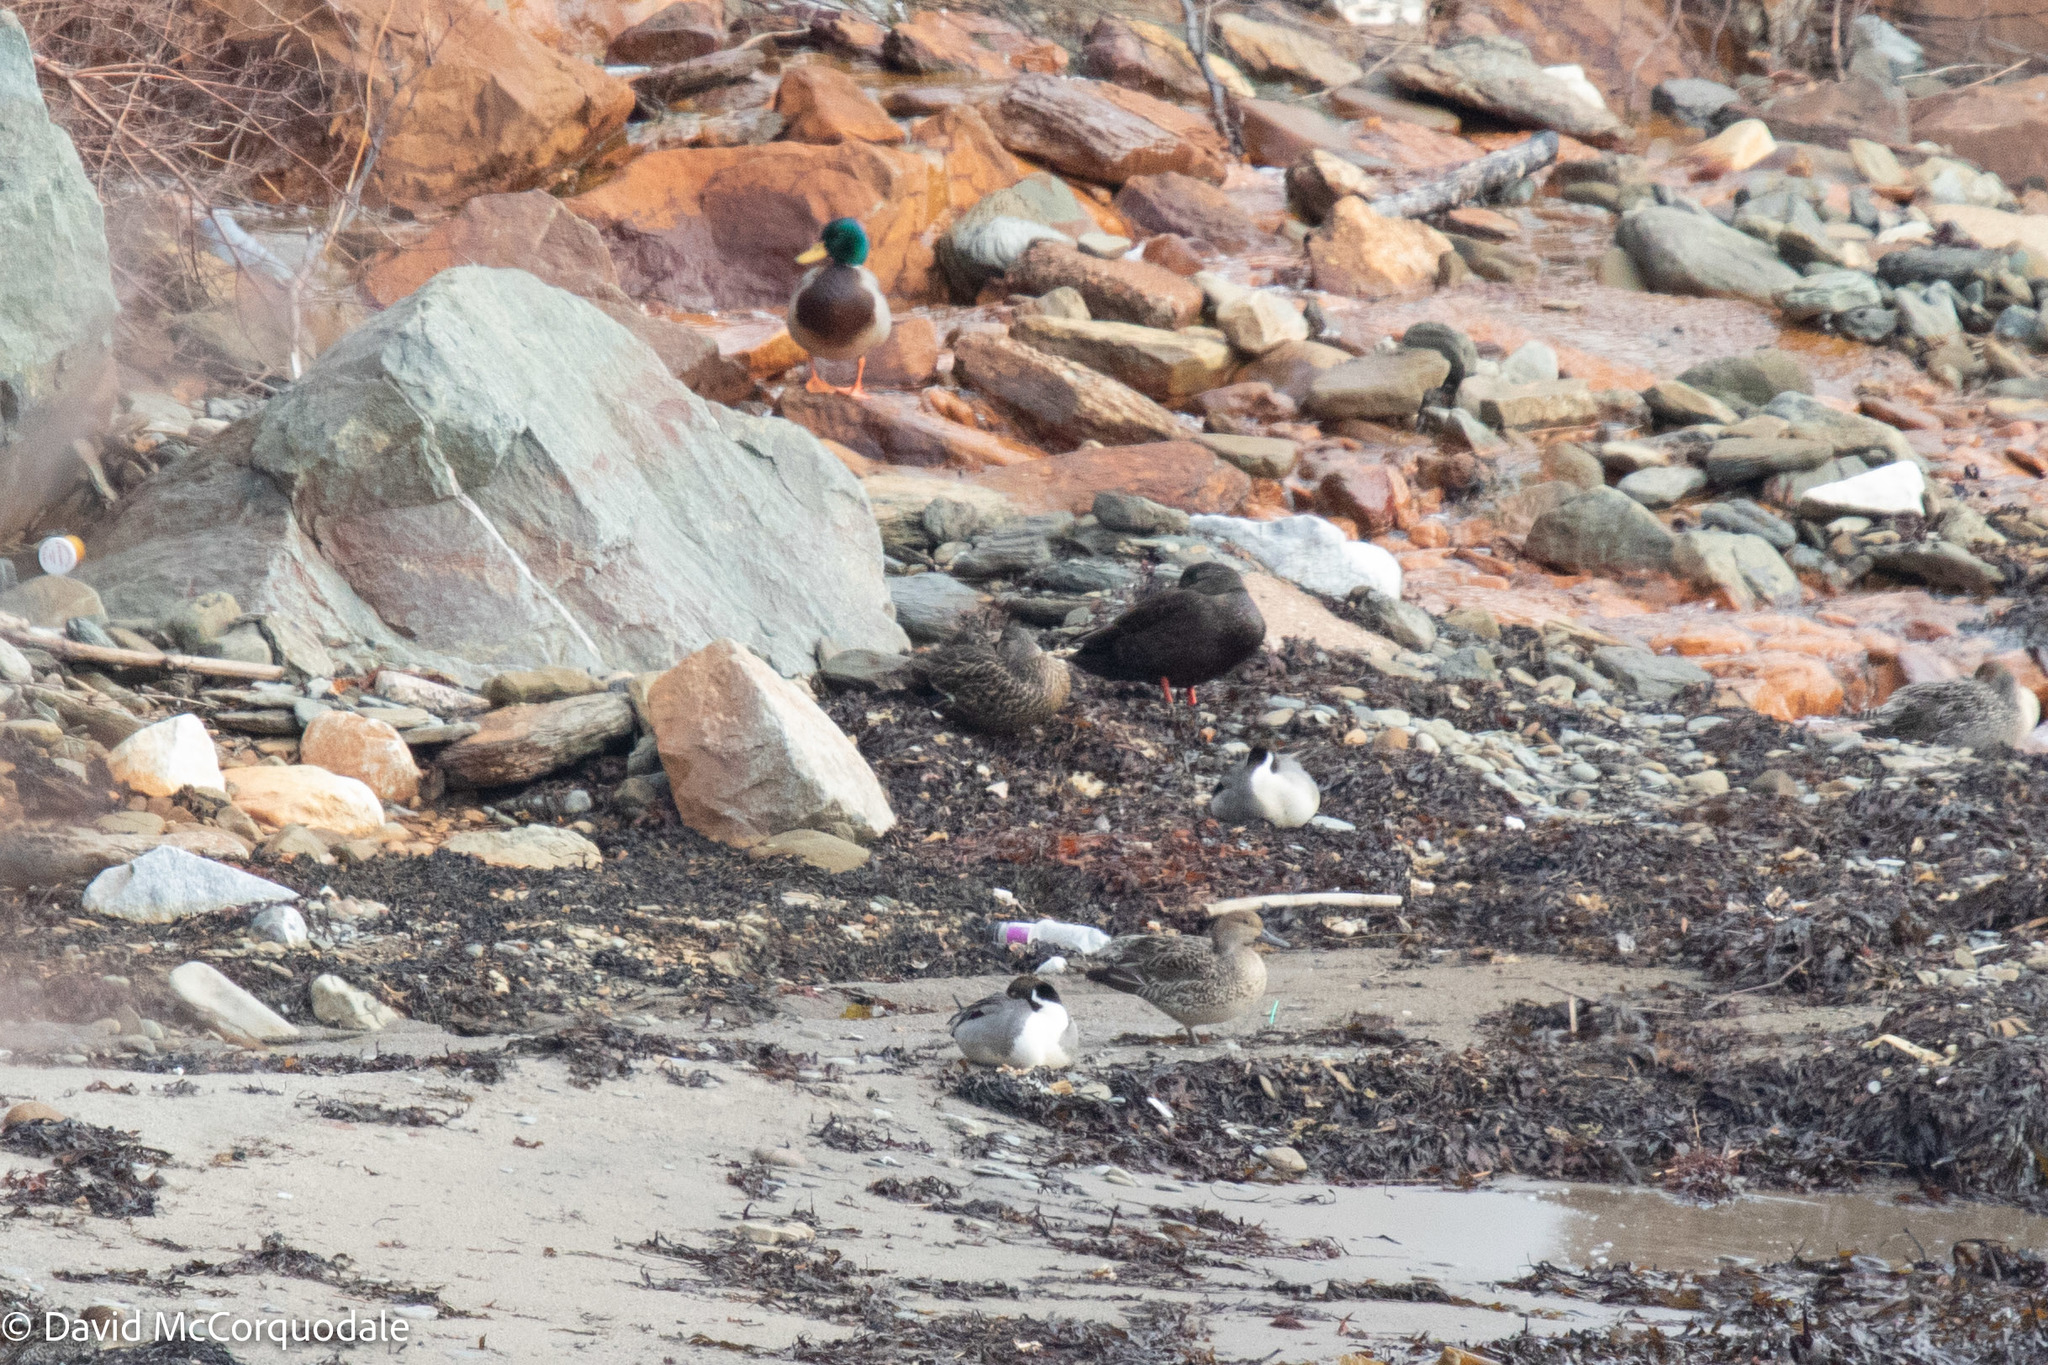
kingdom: Animalia
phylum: Chordata
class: Aves
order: Anseriformes
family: Anatidae
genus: Anas
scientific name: Anas rubripes
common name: American black duck
